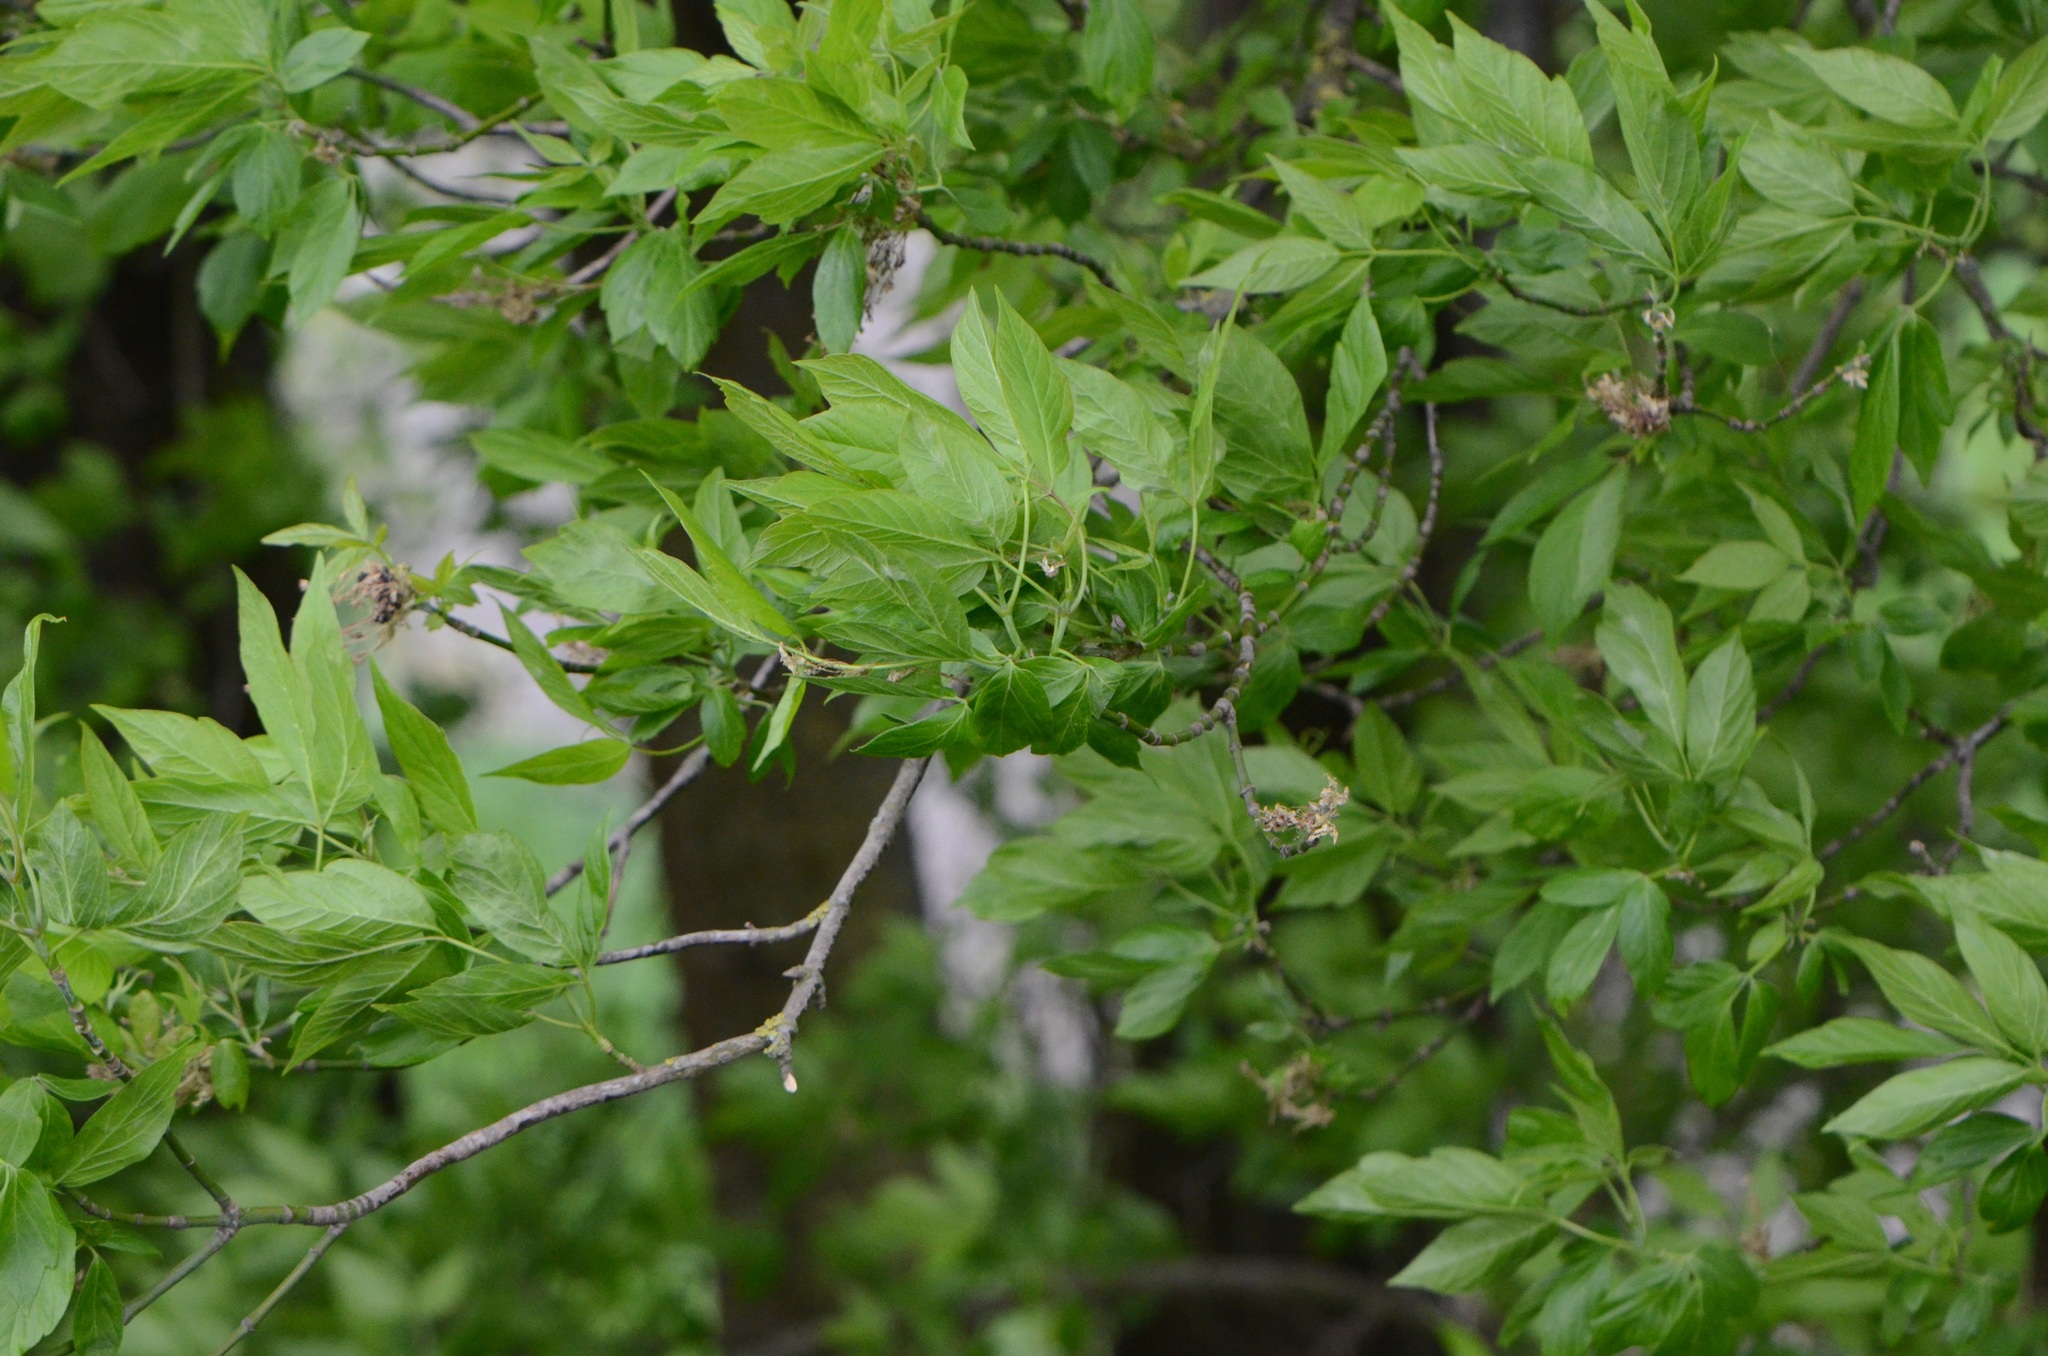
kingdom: Plantae
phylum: Tracheophyta
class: Magnoliopsida
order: Sapindales
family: Sapindaceae
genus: Acer
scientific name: Acer negundo
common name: Ashleaf maple
